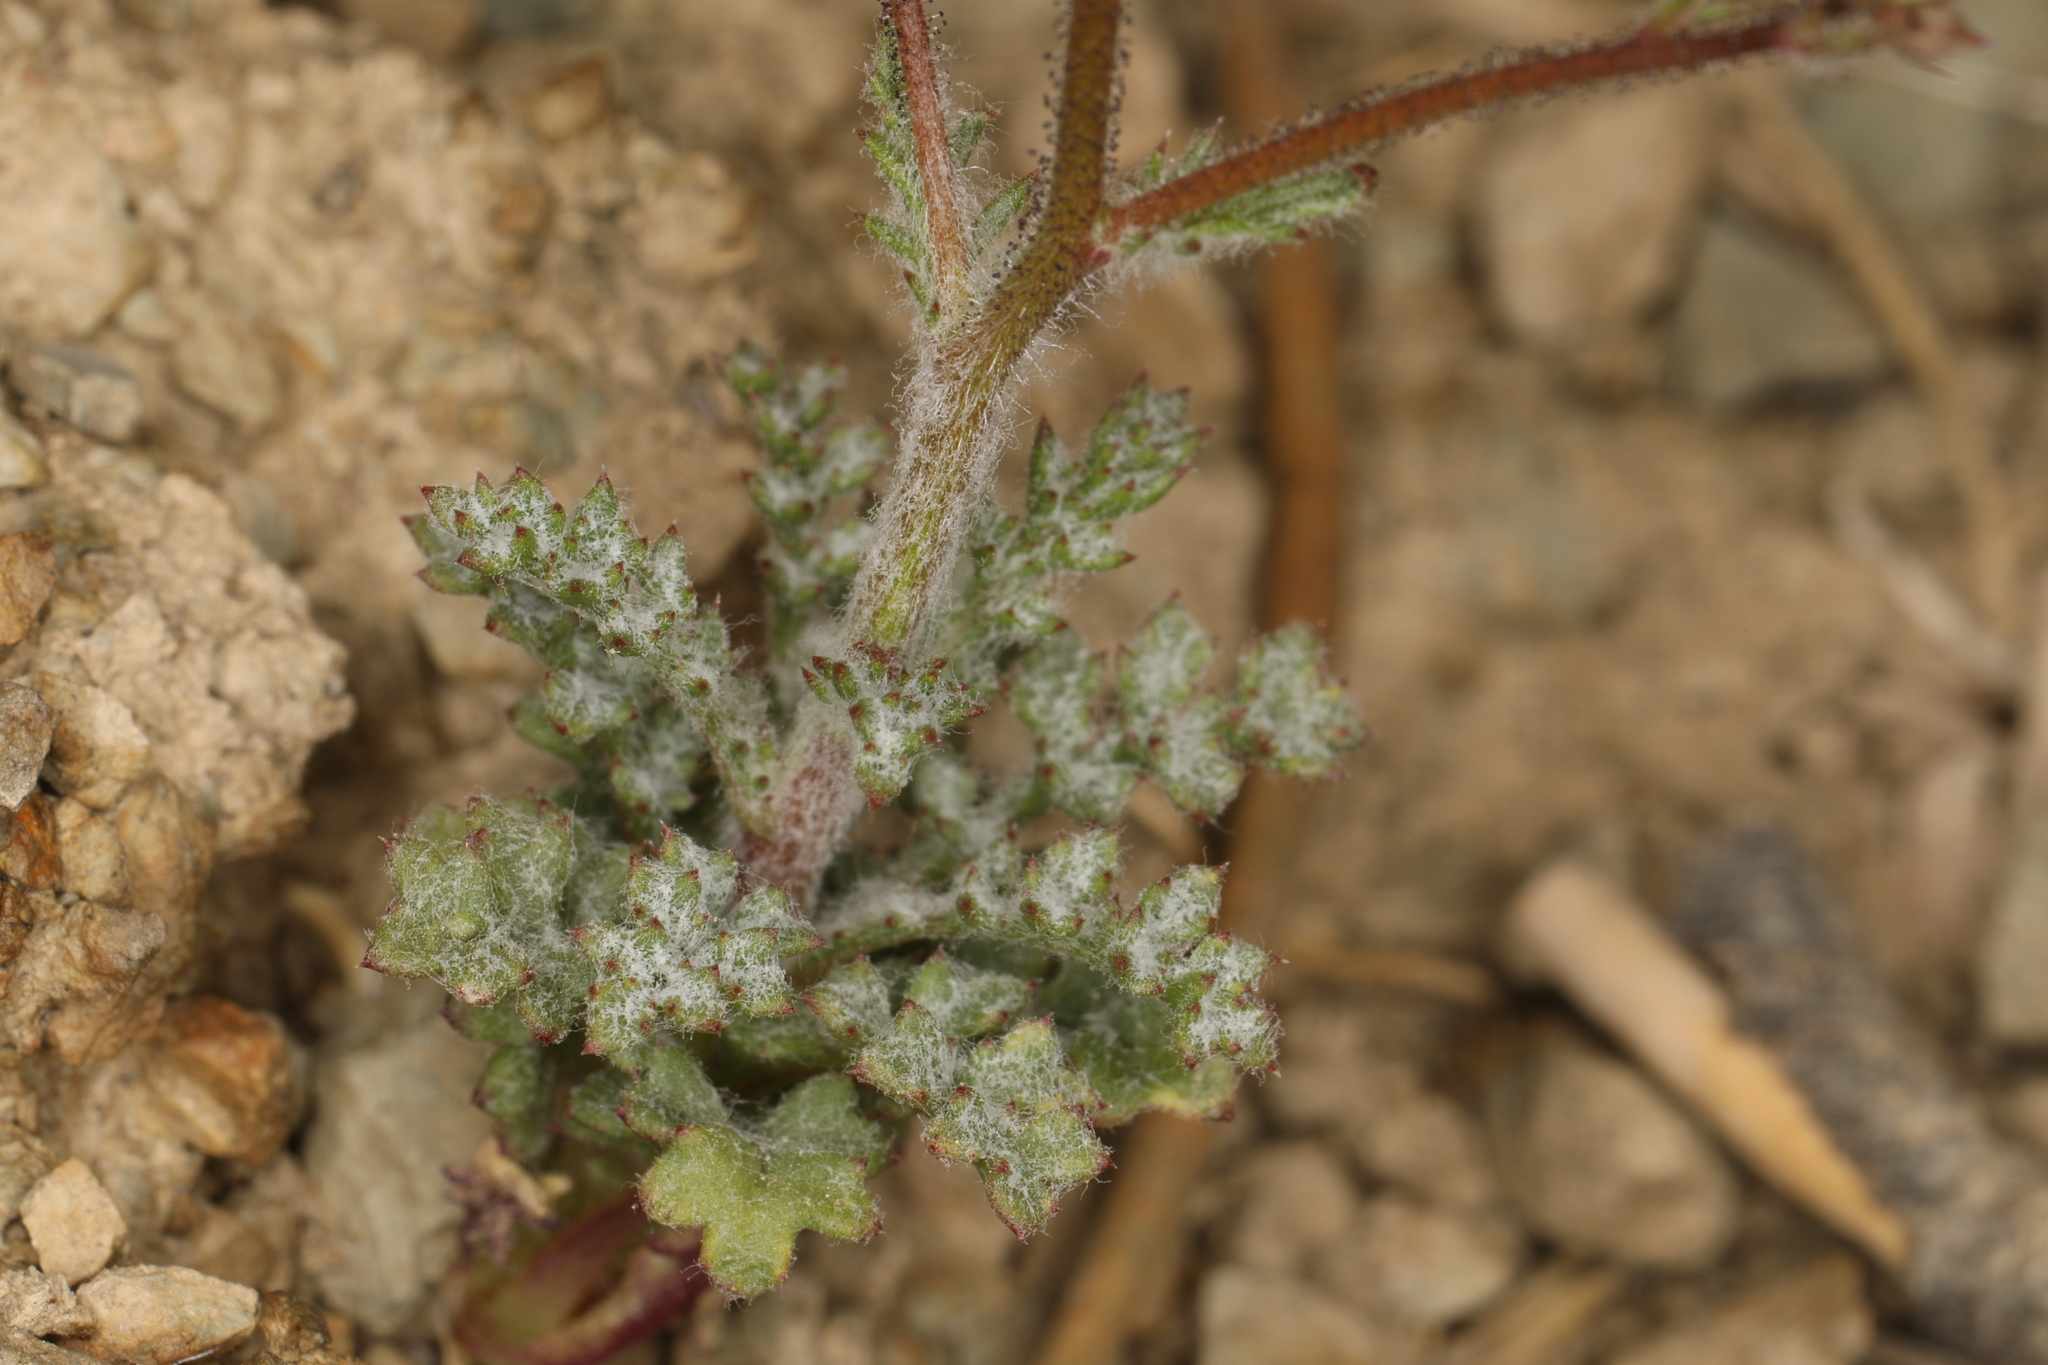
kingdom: Plantae
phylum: Tracheophyta
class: Magnoliopsida
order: Ericales
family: Polemoniaceae
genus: Gilia
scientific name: Gilia ophthalmoides
